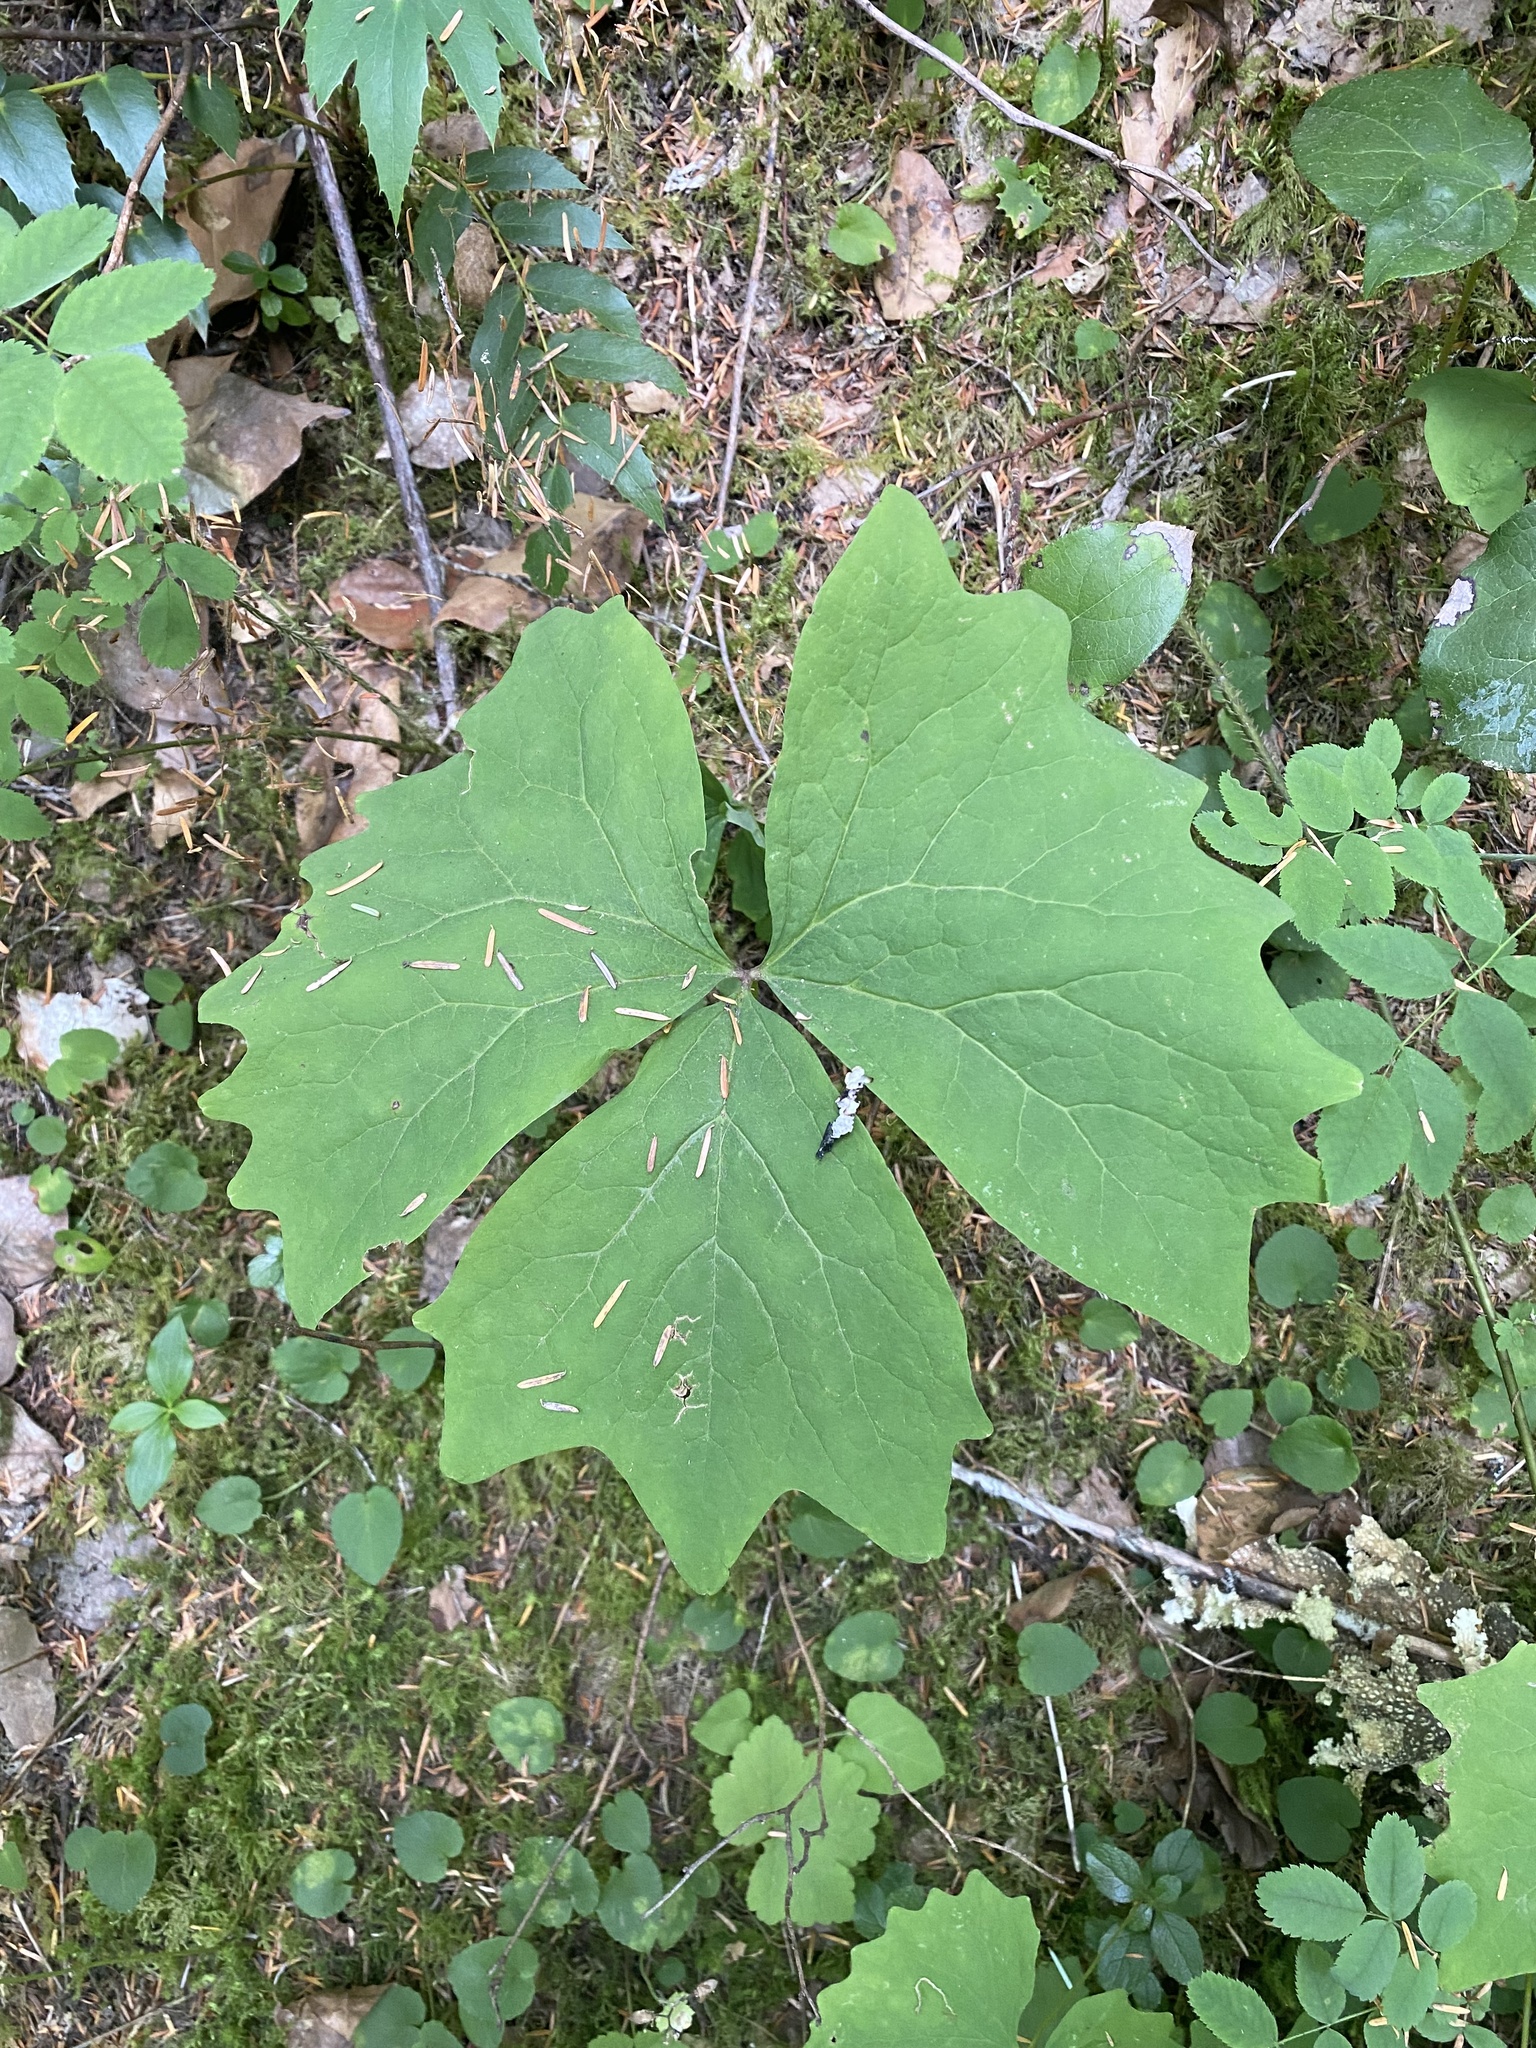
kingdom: Plantae
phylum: Tracheophyta
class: Magnoliopsida
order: Ranunculales
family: Berberidaceae
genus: Achlys
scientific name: Achlys triphylla
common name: Vanilla-leaf
